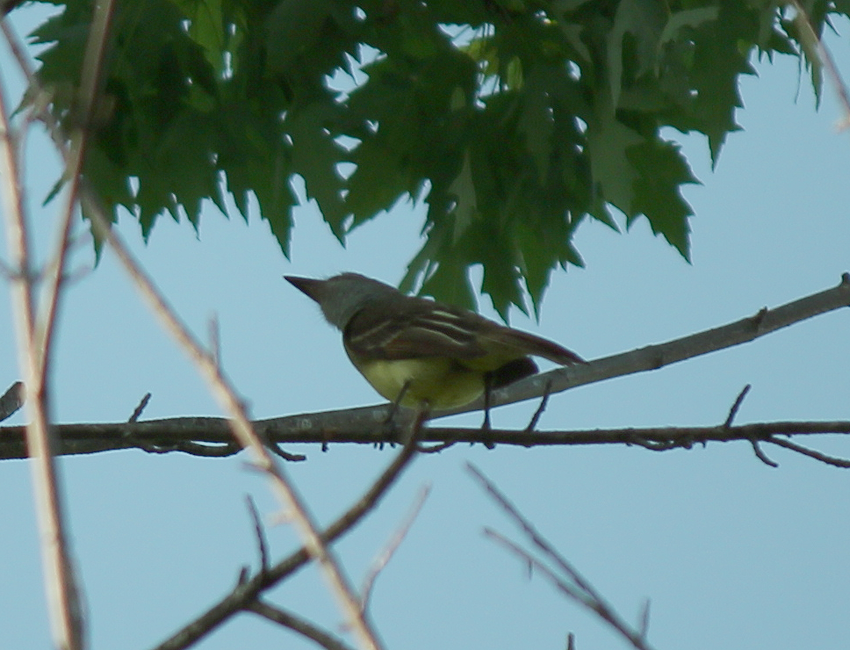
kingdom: Animalia
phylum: Chordata
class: Aves
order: Passeriformes
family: Tyrannidae
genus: Myiarchus
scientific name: Myiarchus crinitus
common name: Great crested flycatcher
